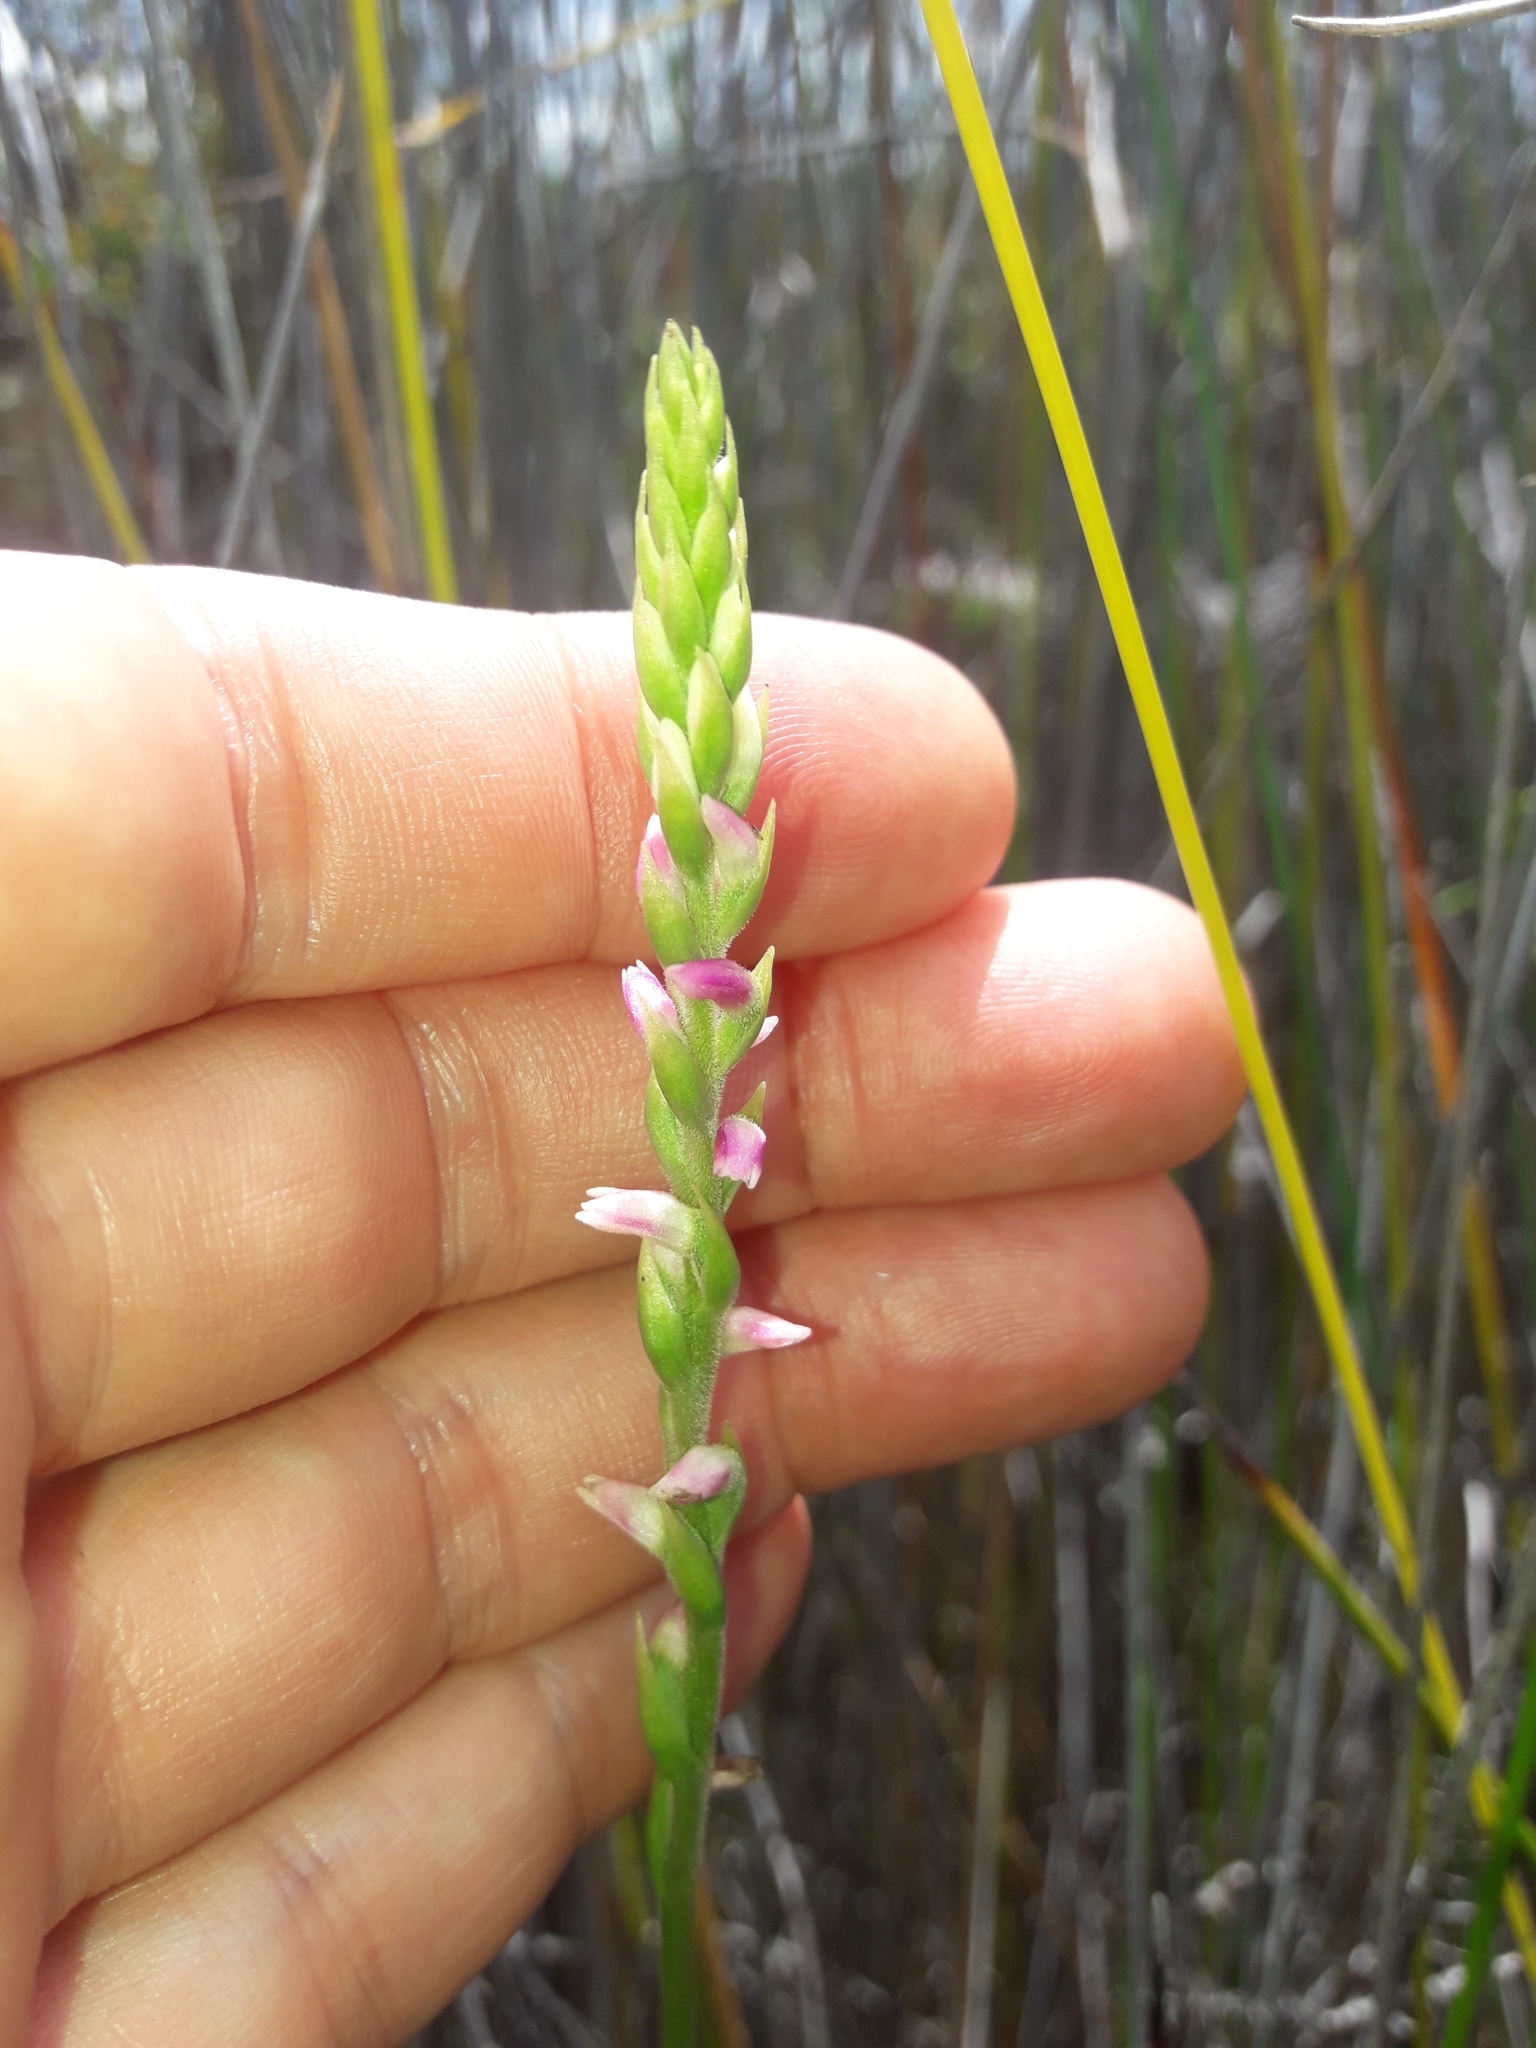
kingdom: Plantae
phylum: Tracheophyta
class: Liliopsida
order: Asparagales
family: Orchidaceae
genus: Spiranthes
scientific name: Spiranthes australis
